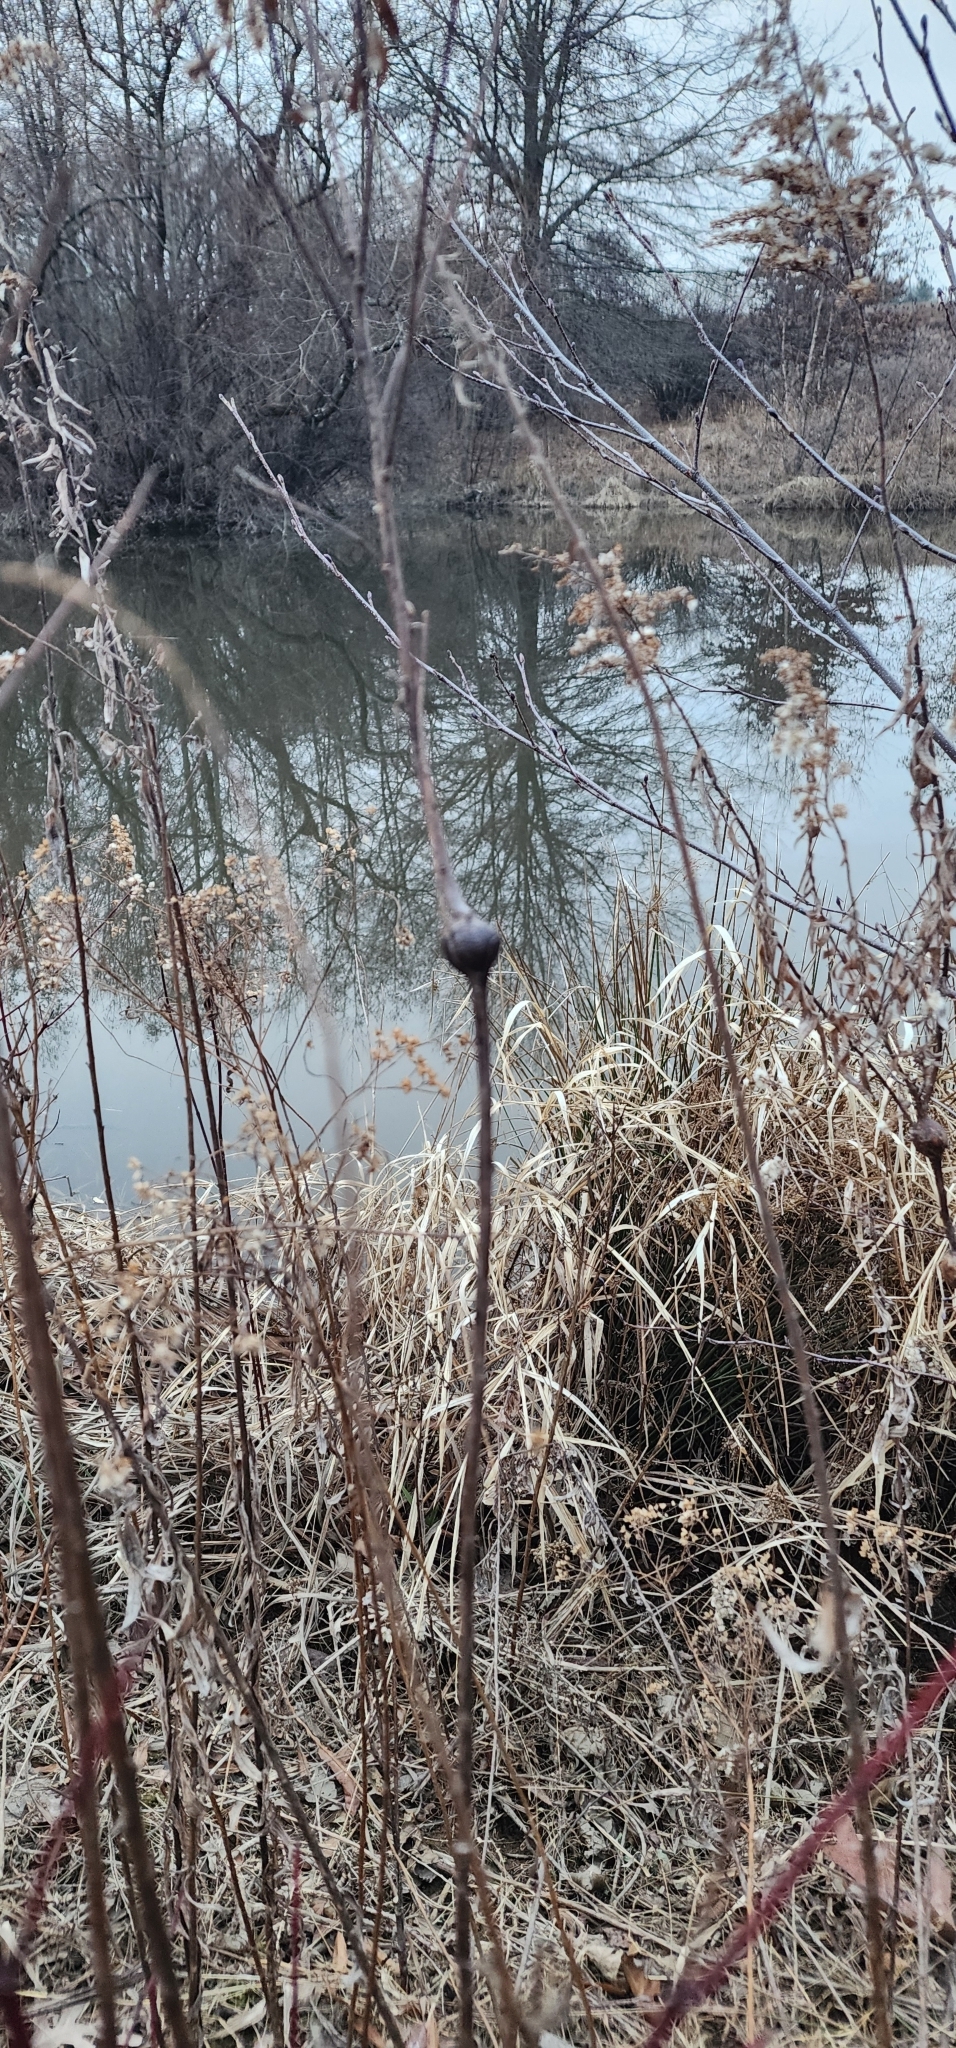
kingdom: Animalia
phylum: Arthropoda
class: Insecta
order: Diptera
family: Tephritidae
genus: Eurosta
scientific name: Eurosta solidaginis
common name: Goldenrod gall fly
